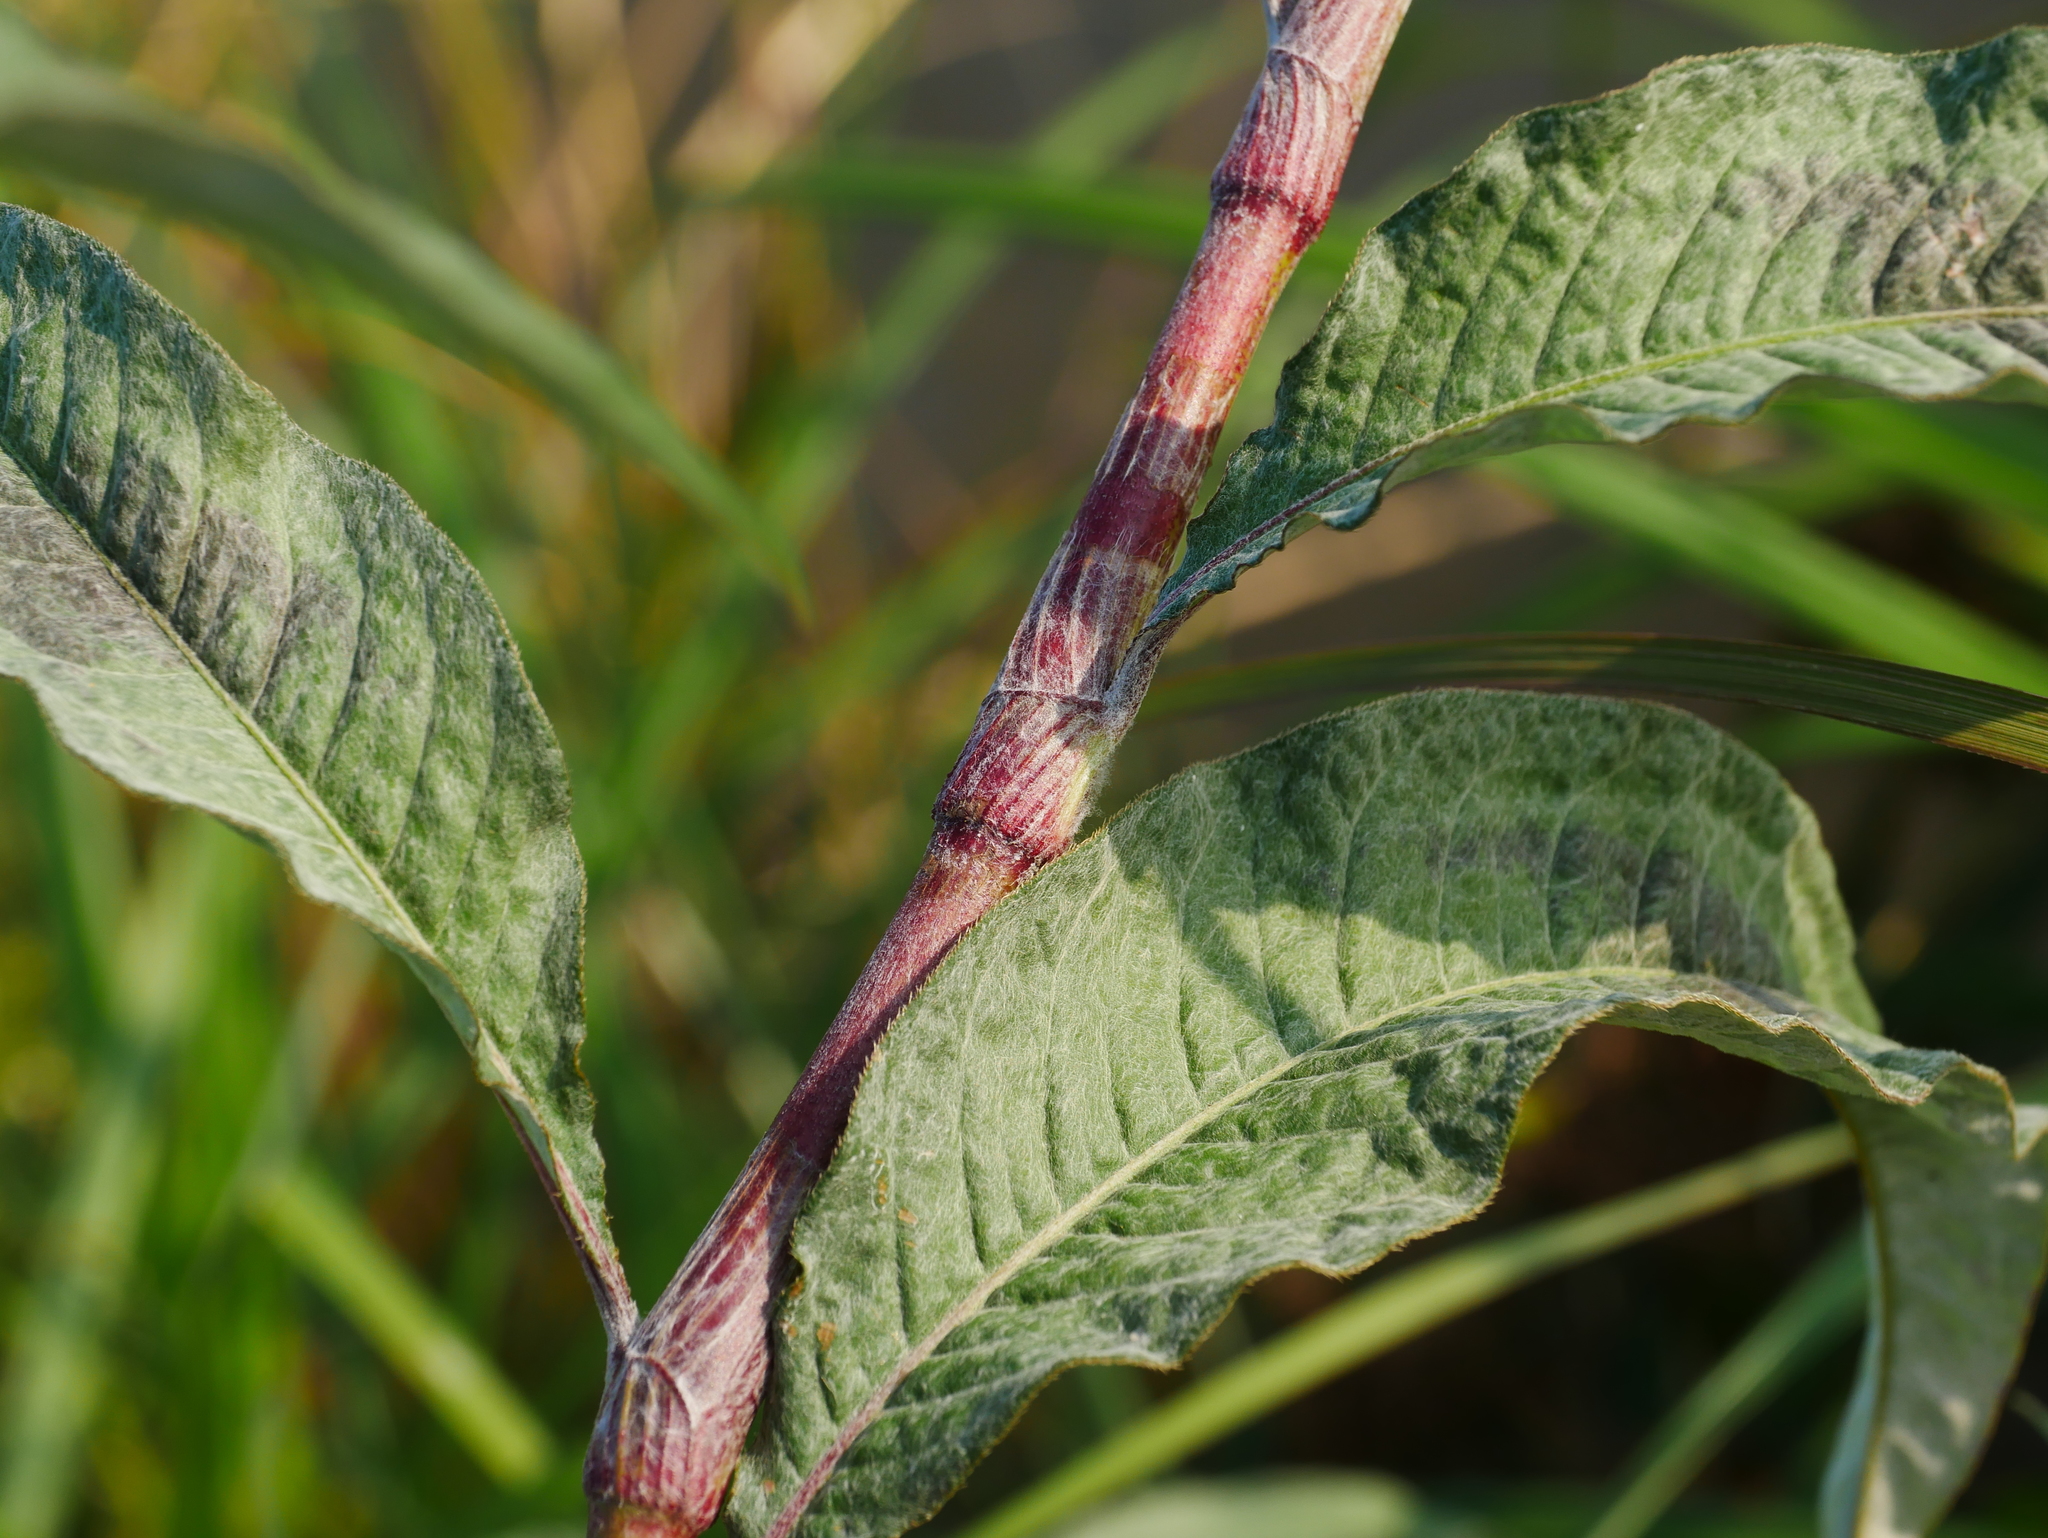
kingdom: Plantae
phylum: Tracheophyta
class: Magnoliopsida
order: Caryophyllales
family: Polygonaceae
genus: Persicaria
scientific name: Persicaria lanata
